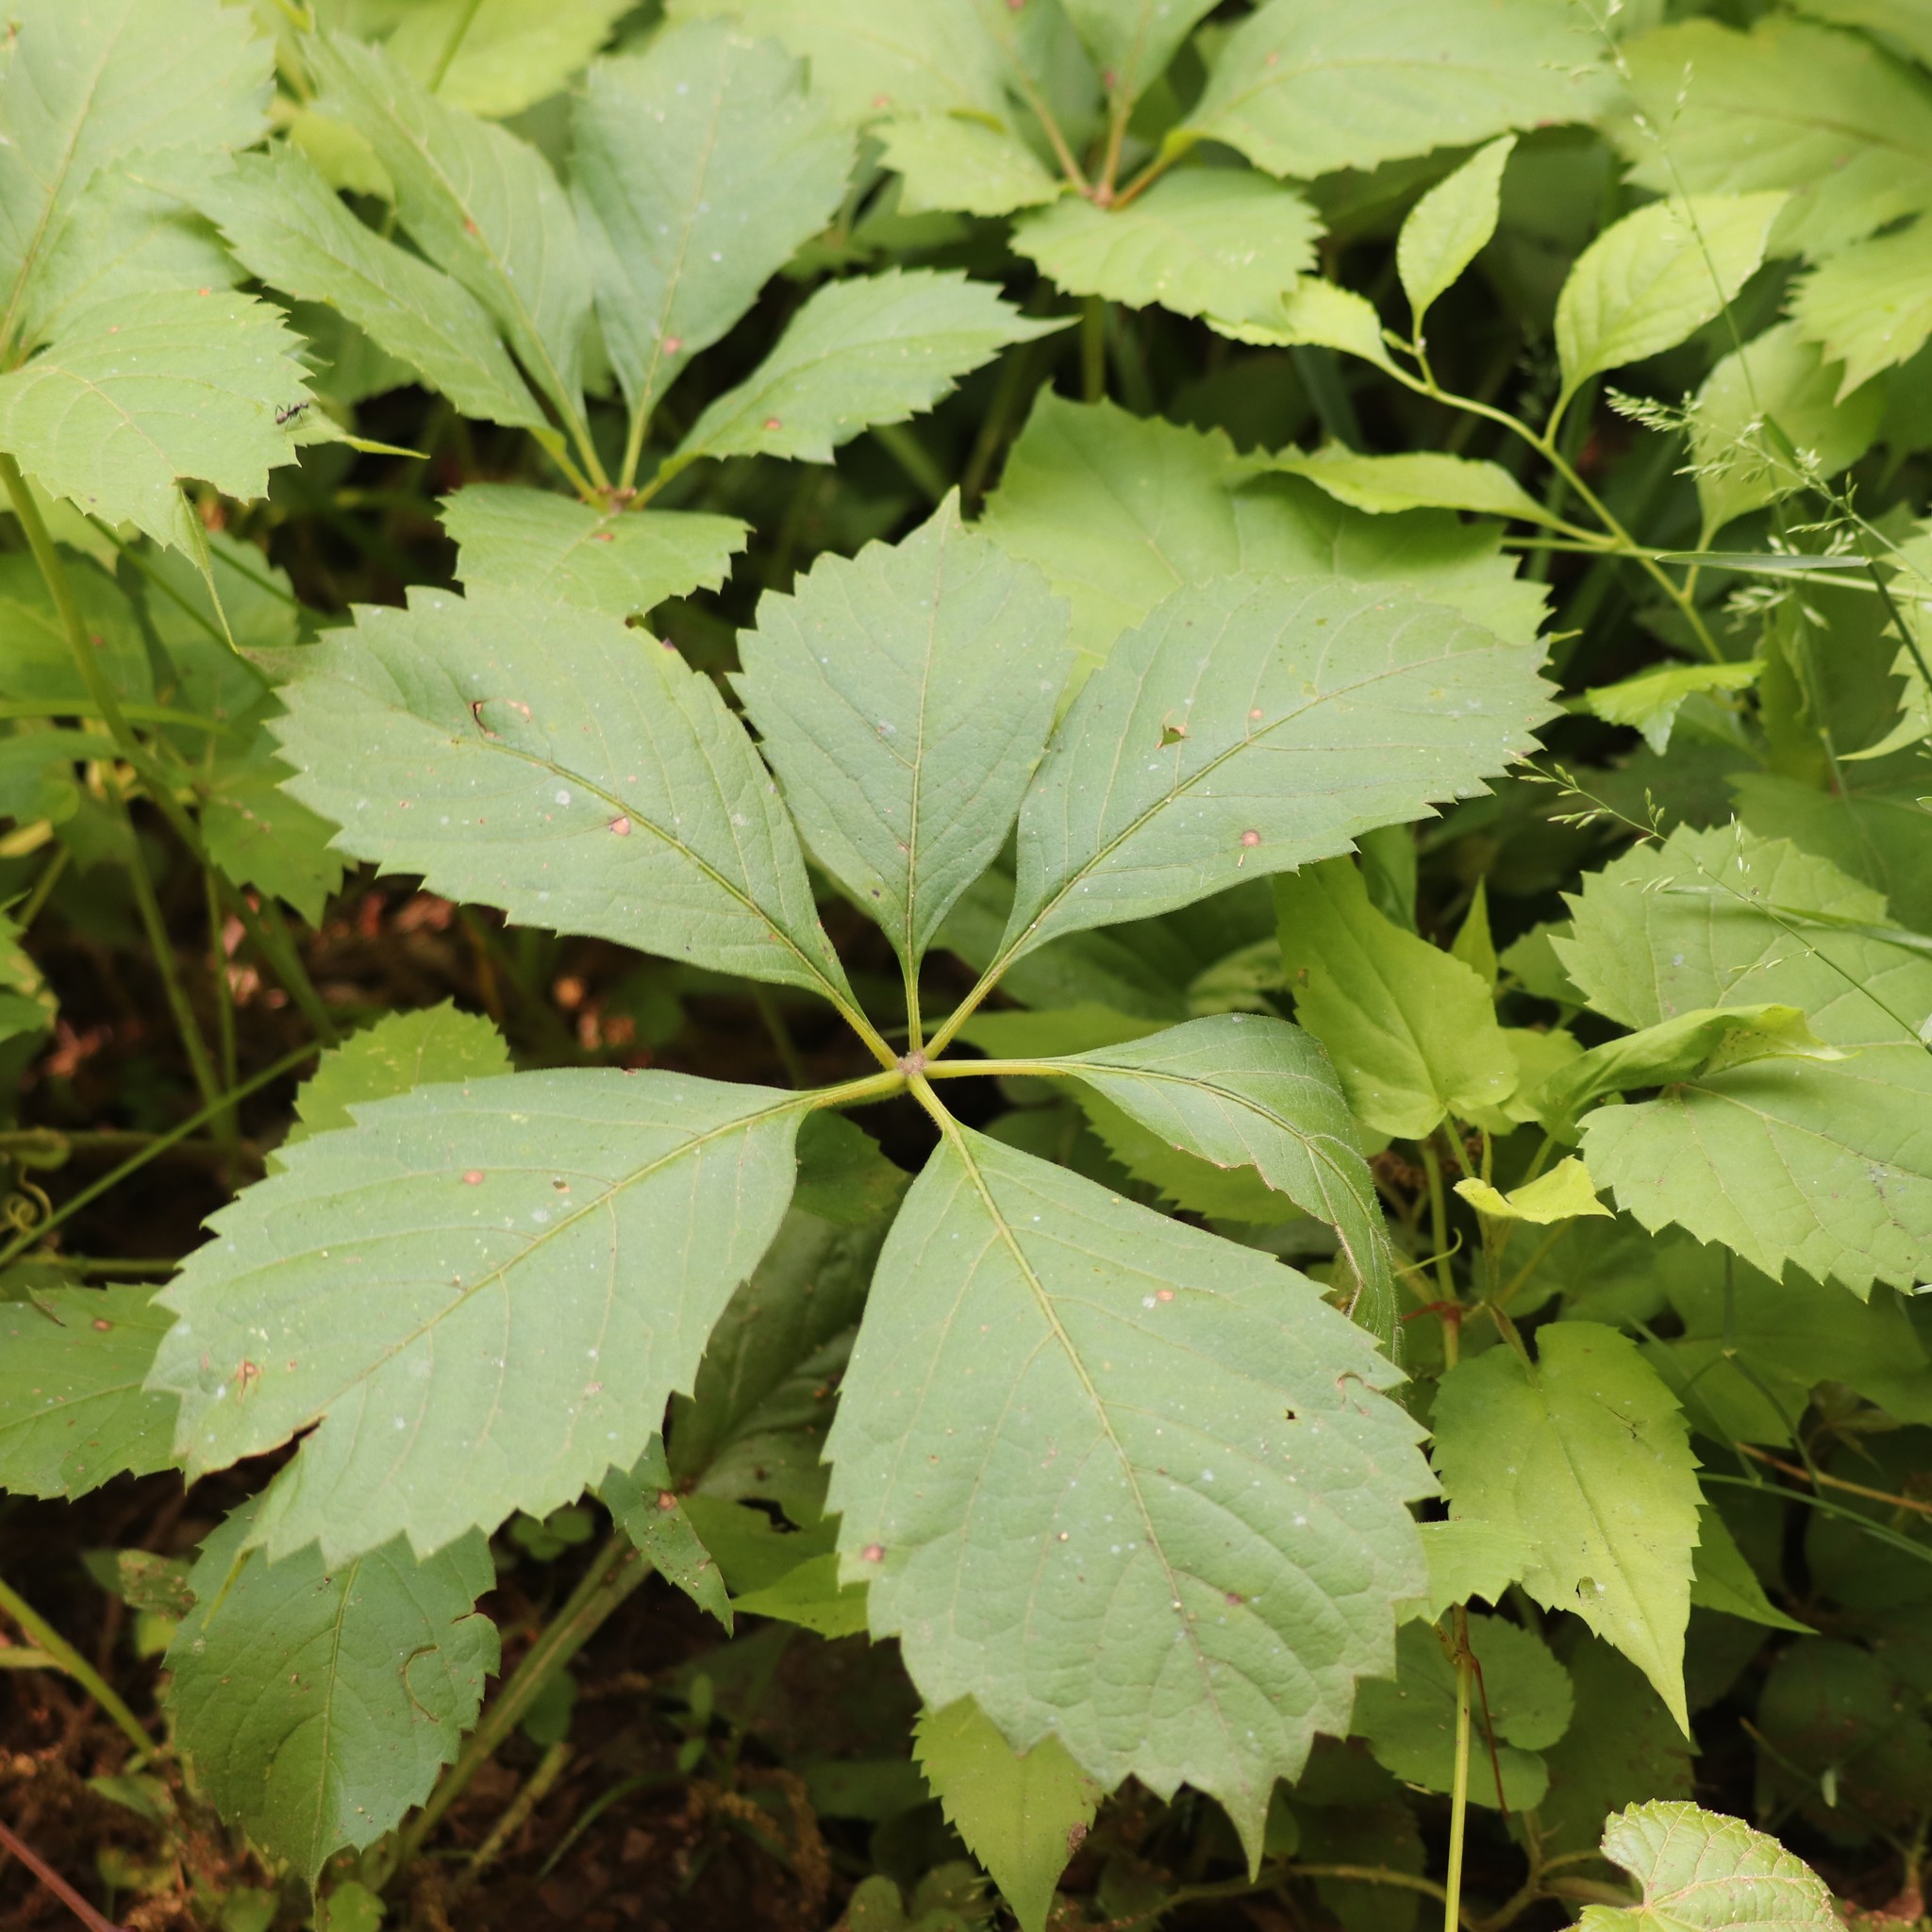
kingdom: Plantae
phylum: Tracheophyta
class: Magnoliopsida
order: Vitales
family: Vitaceae
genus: Parthenocissus
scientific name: Parthenocissus inserta
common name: False virginia-creeper
